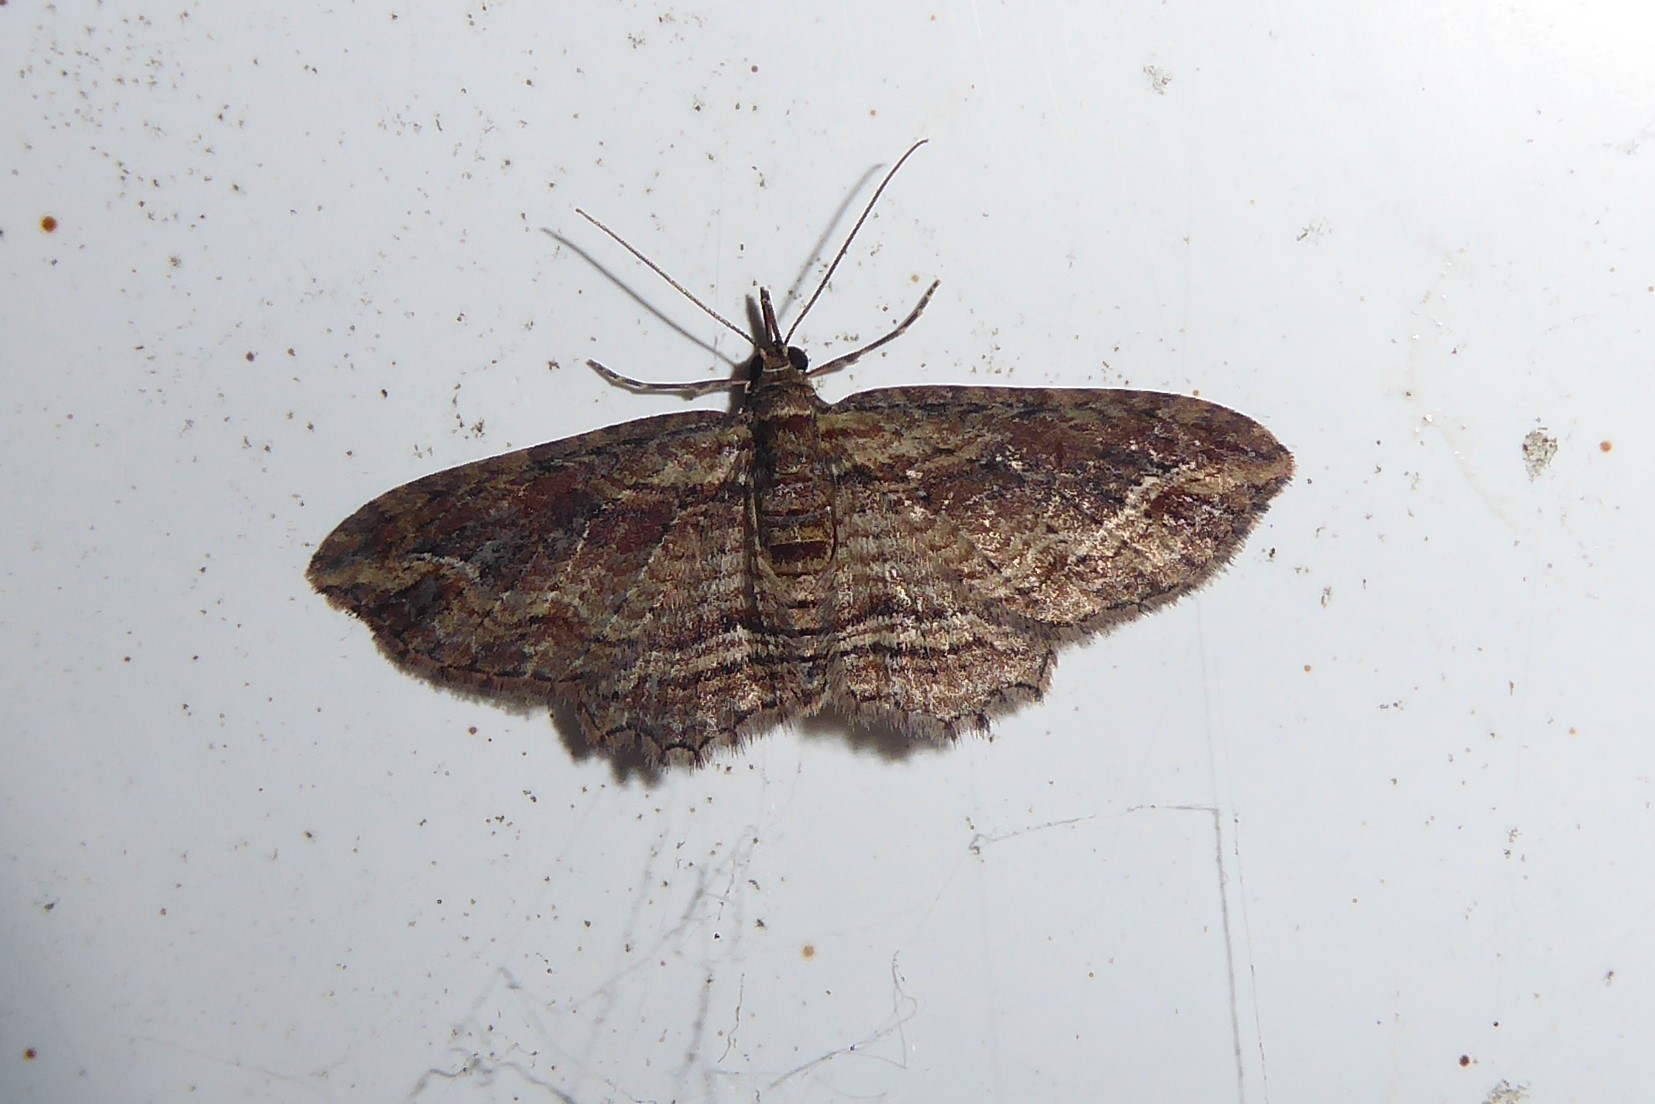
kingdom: Animalia
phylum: Arthropoda
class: Insecta
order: Lepidoptera
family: Geometridae
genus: Chloroclystis
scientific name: Chloroclystis filata
